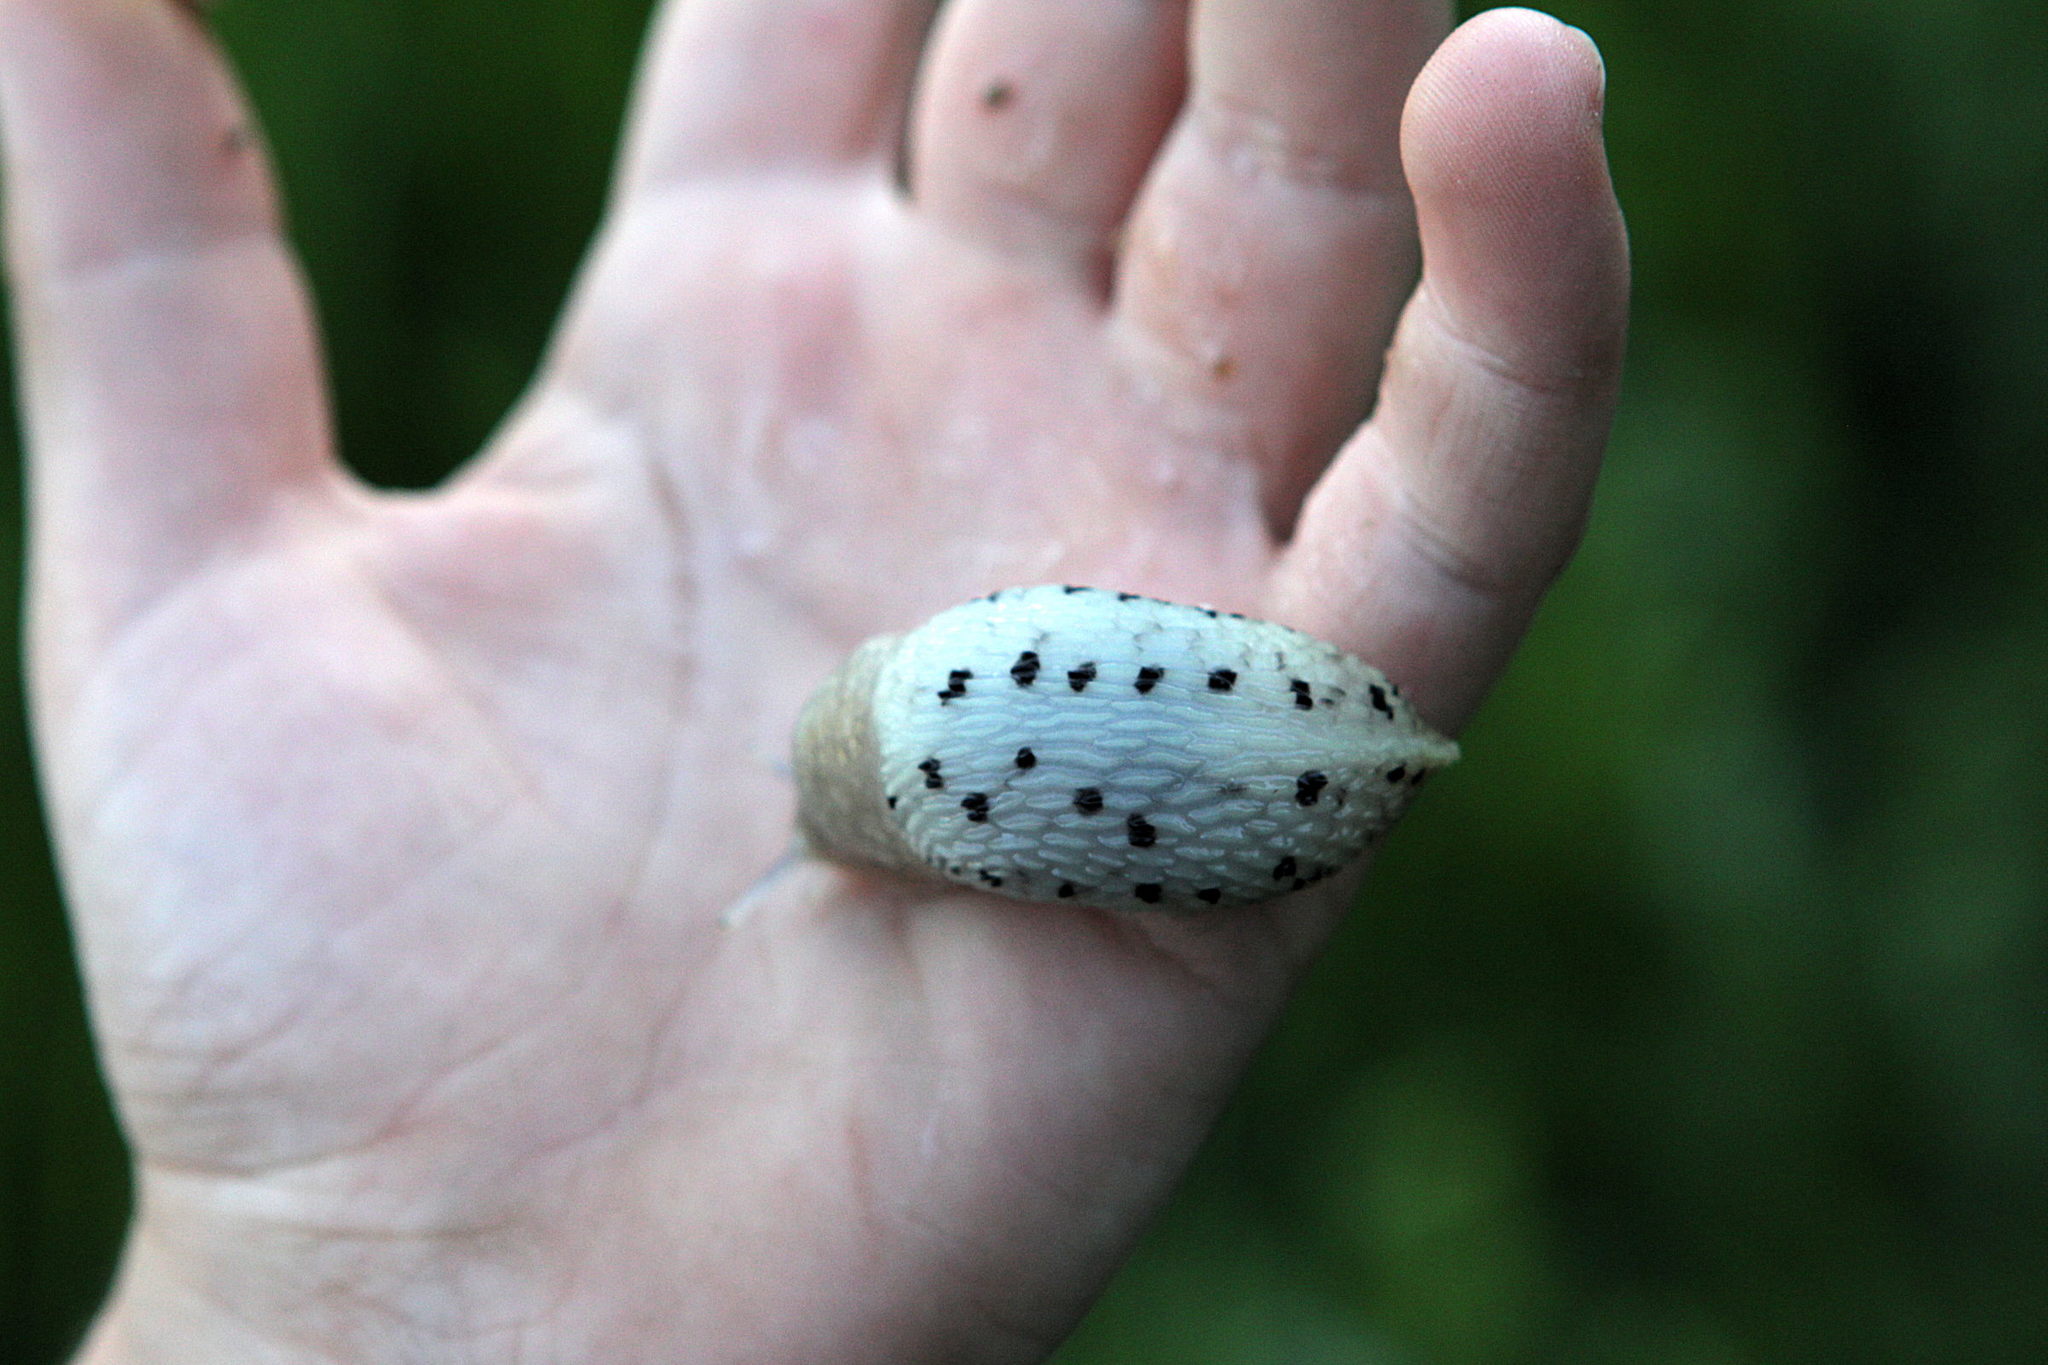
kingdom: Animalia
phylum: Mollusca
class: Gastropoda
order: Stylommatophora
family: Limacidae
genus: Limax
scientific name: Limax cinereoniger
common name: Ash-black slug
